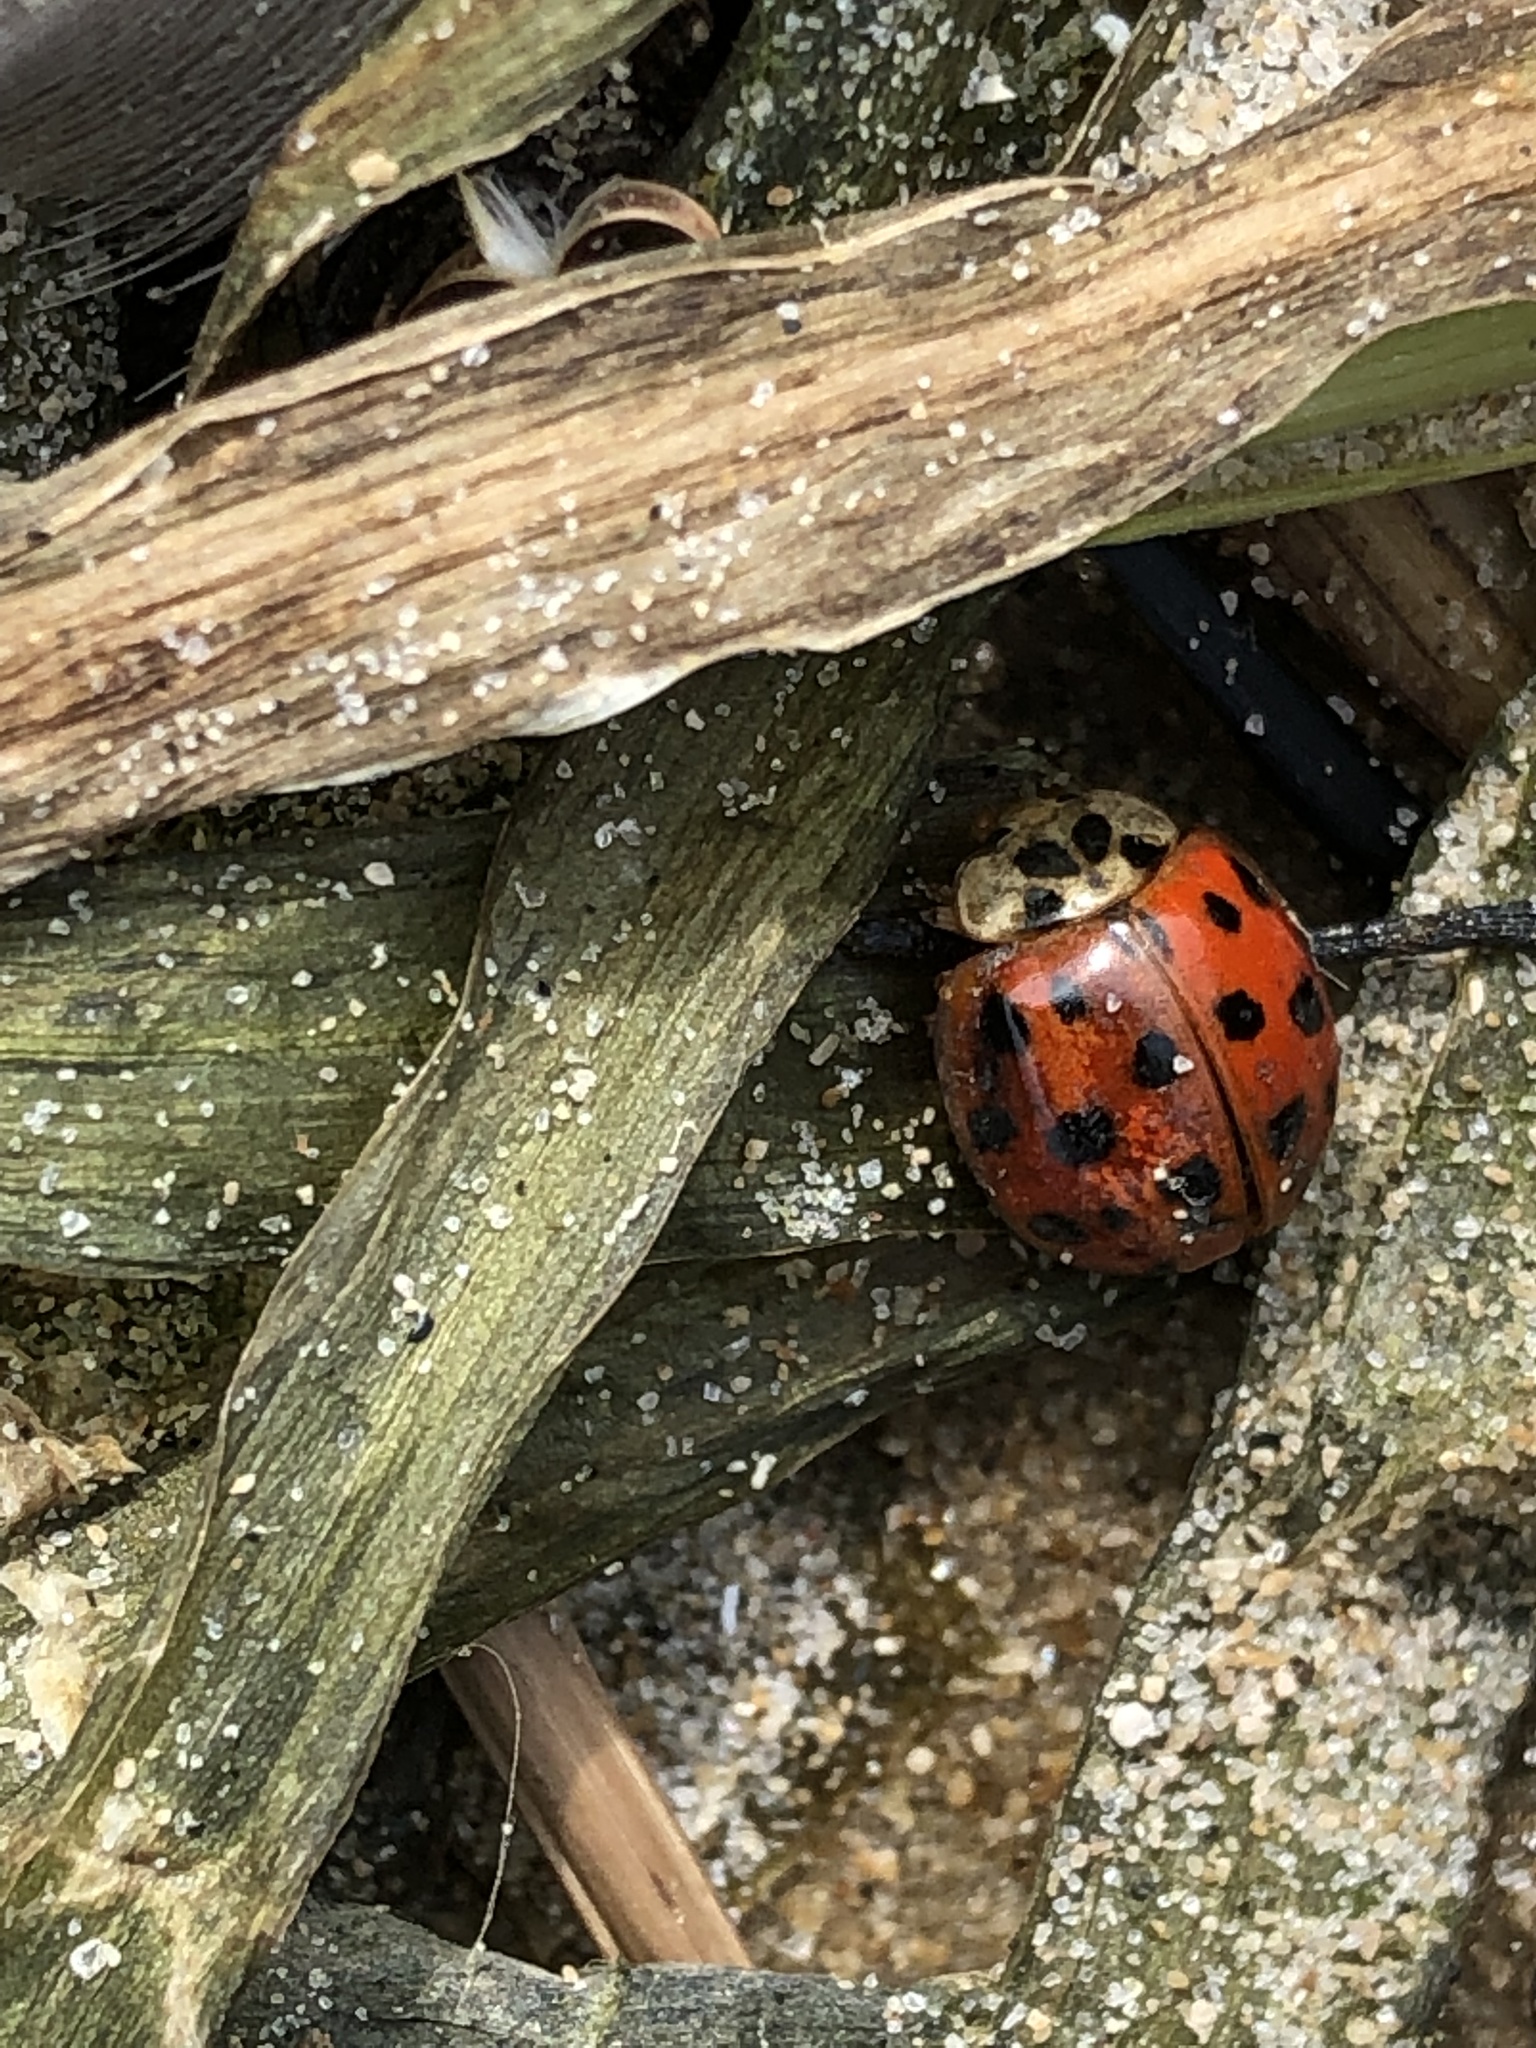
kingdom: Animalia
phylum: Arthropoda
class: Insecta
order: Coleoptera
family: Coccinellidae
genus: Harmonia
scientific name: Harmonia axyridis
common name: Harlequin ladybird
